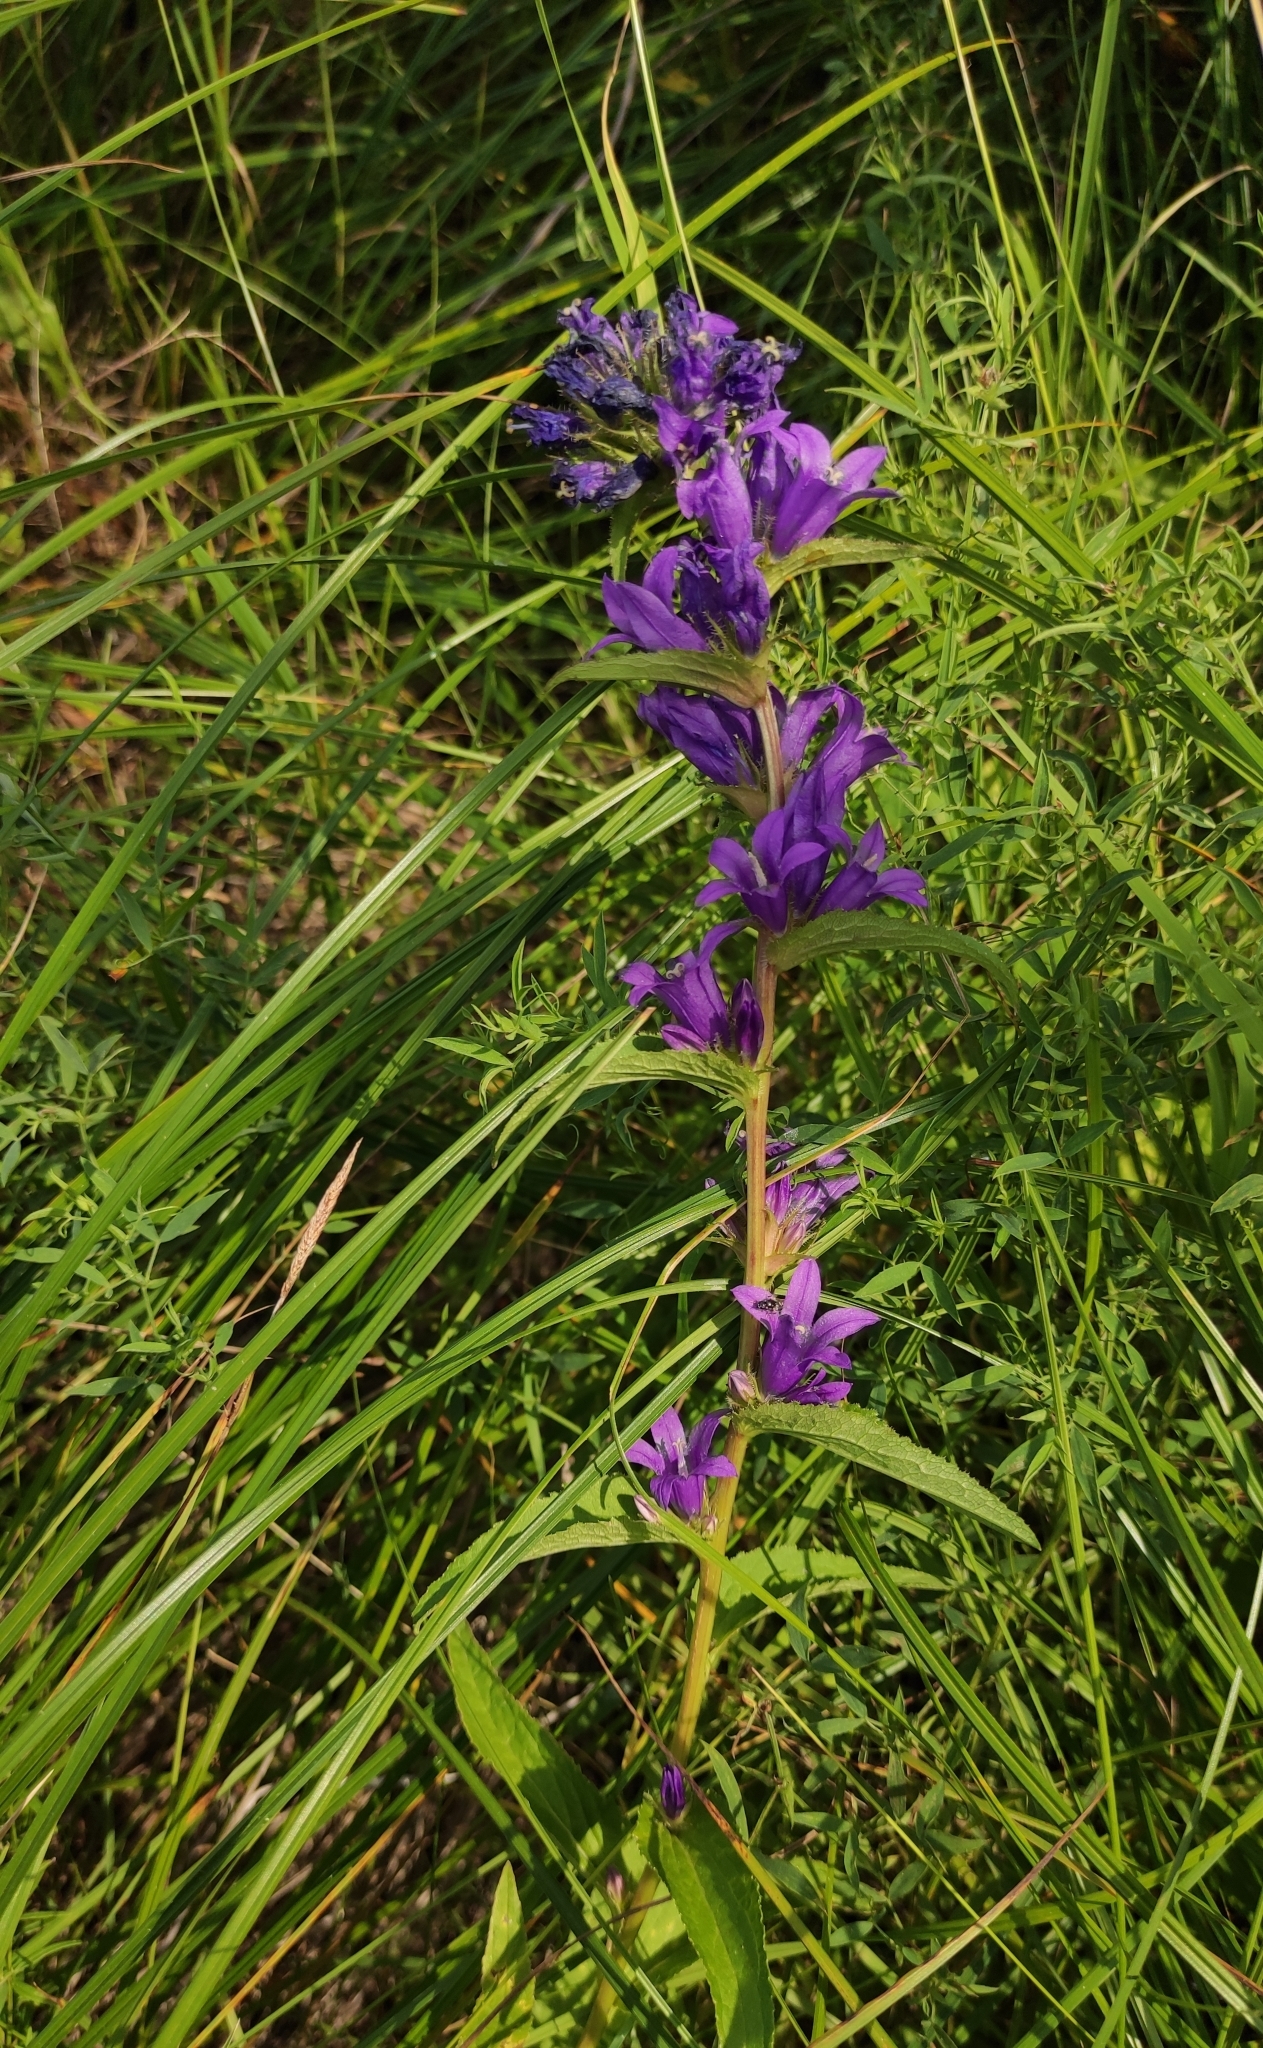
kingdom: Plantae
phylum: Tracheophyta
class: Magnoliopsida
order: Asterales
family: Campanulaceae
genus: Campanula
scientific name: Campanula glomerata
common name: Clustered bellflower
